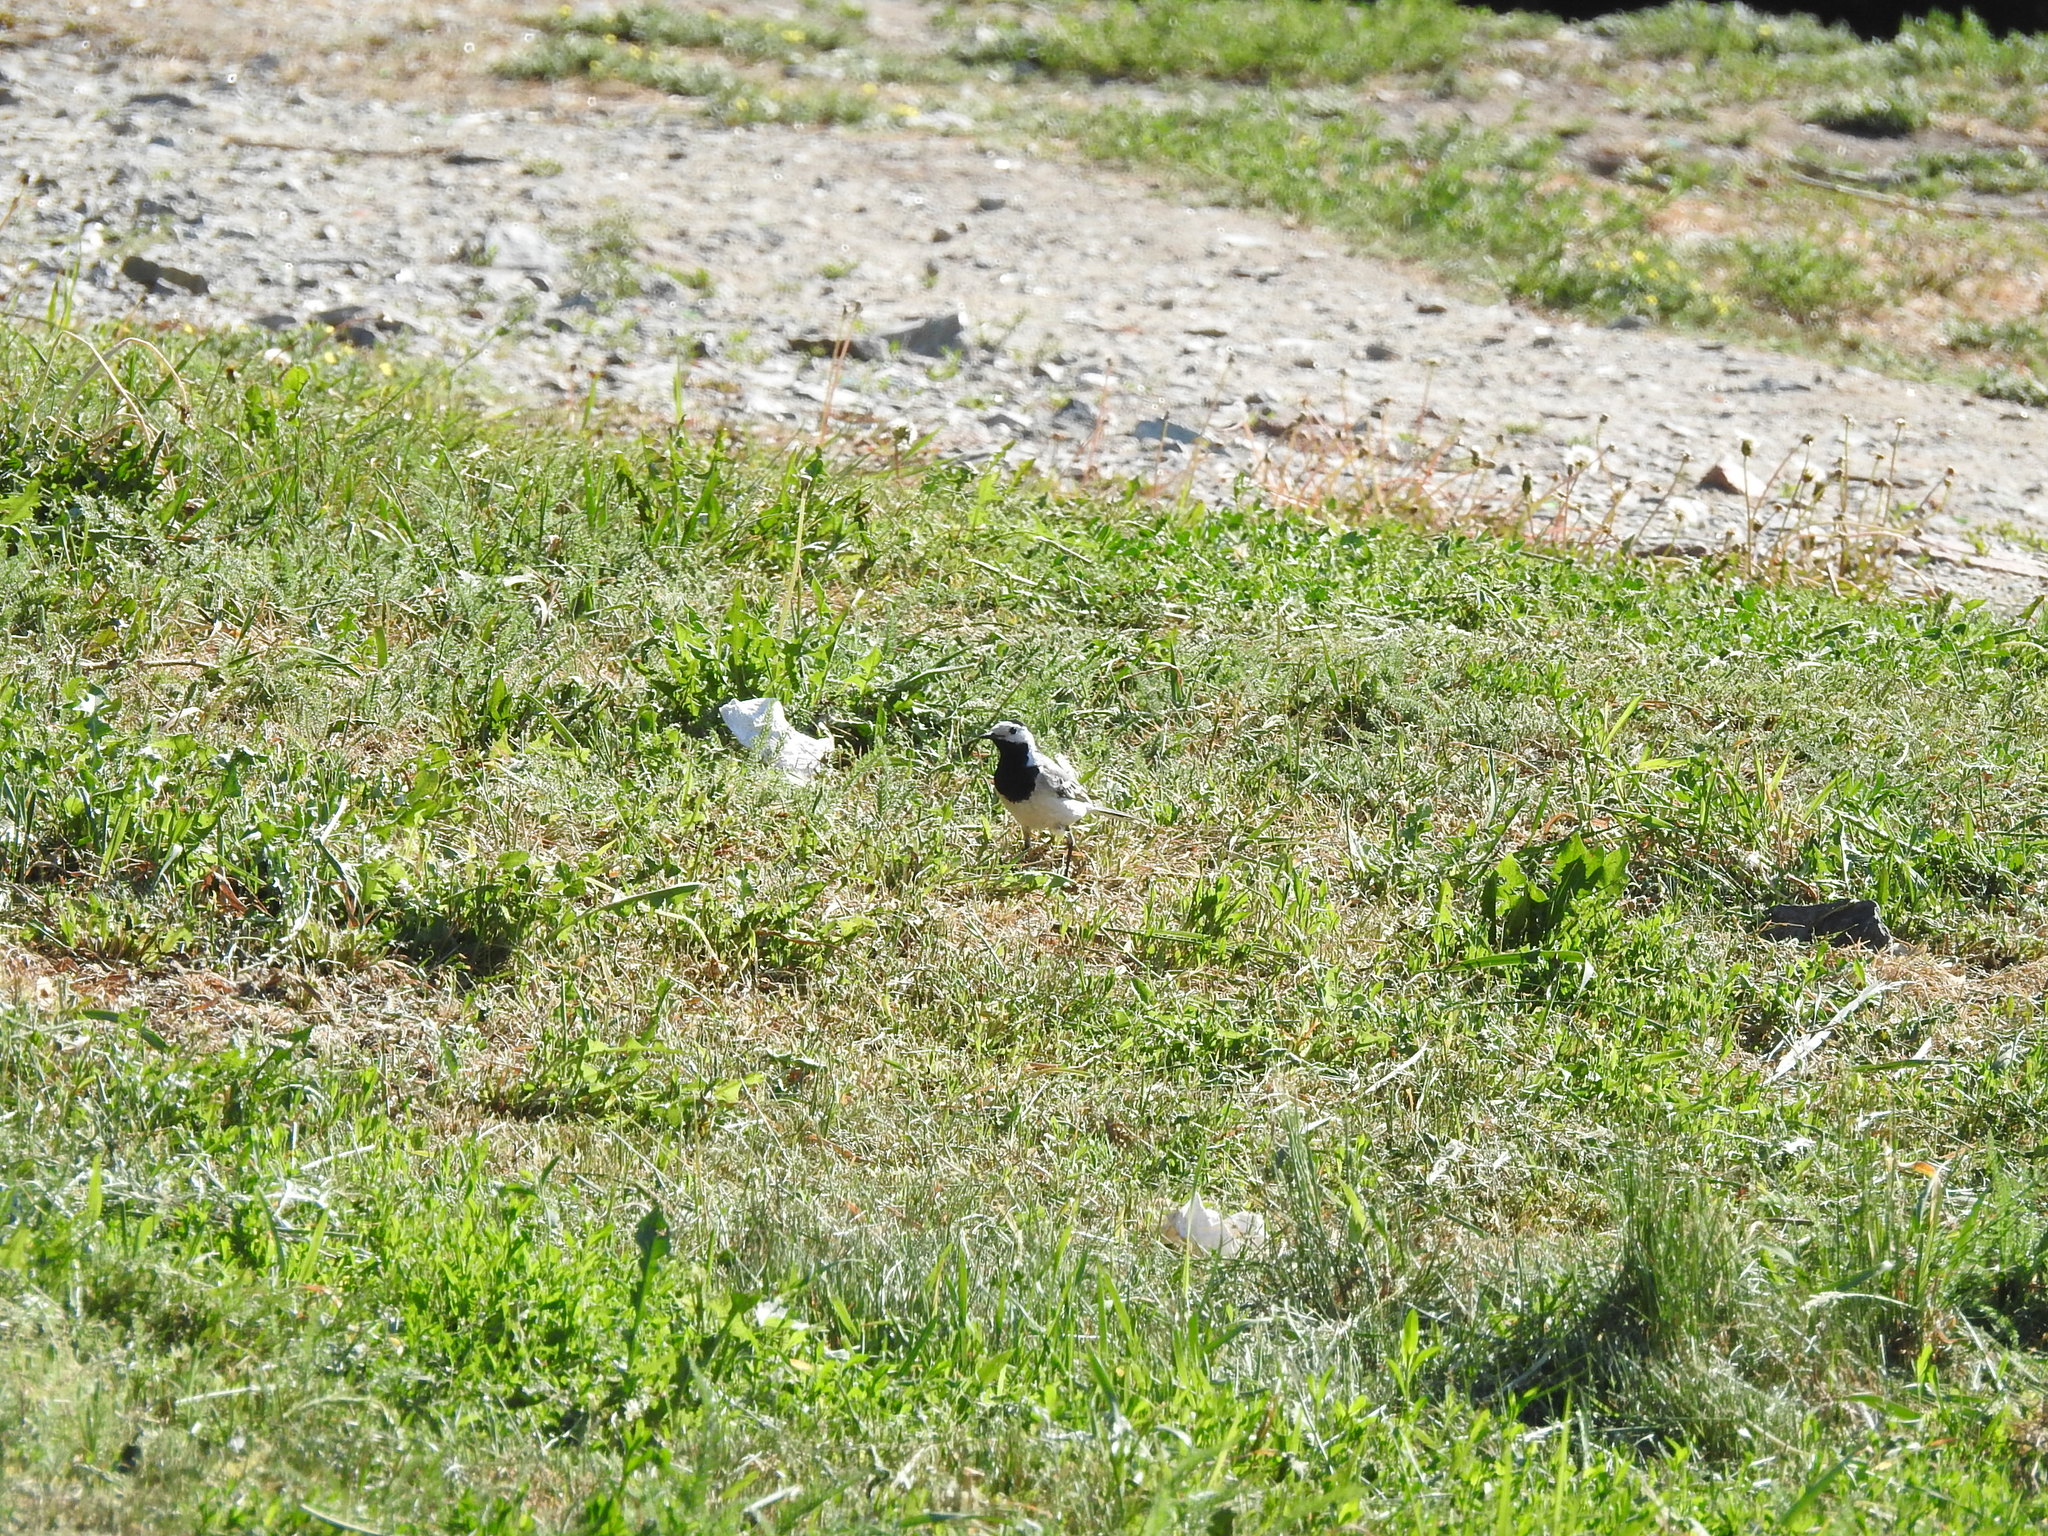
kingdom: Animalia
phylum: Chordata
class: Aves
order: Passeriformes
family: Motacillidae
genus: Motacilla
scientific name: Motacilla alba
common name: White wagtail
